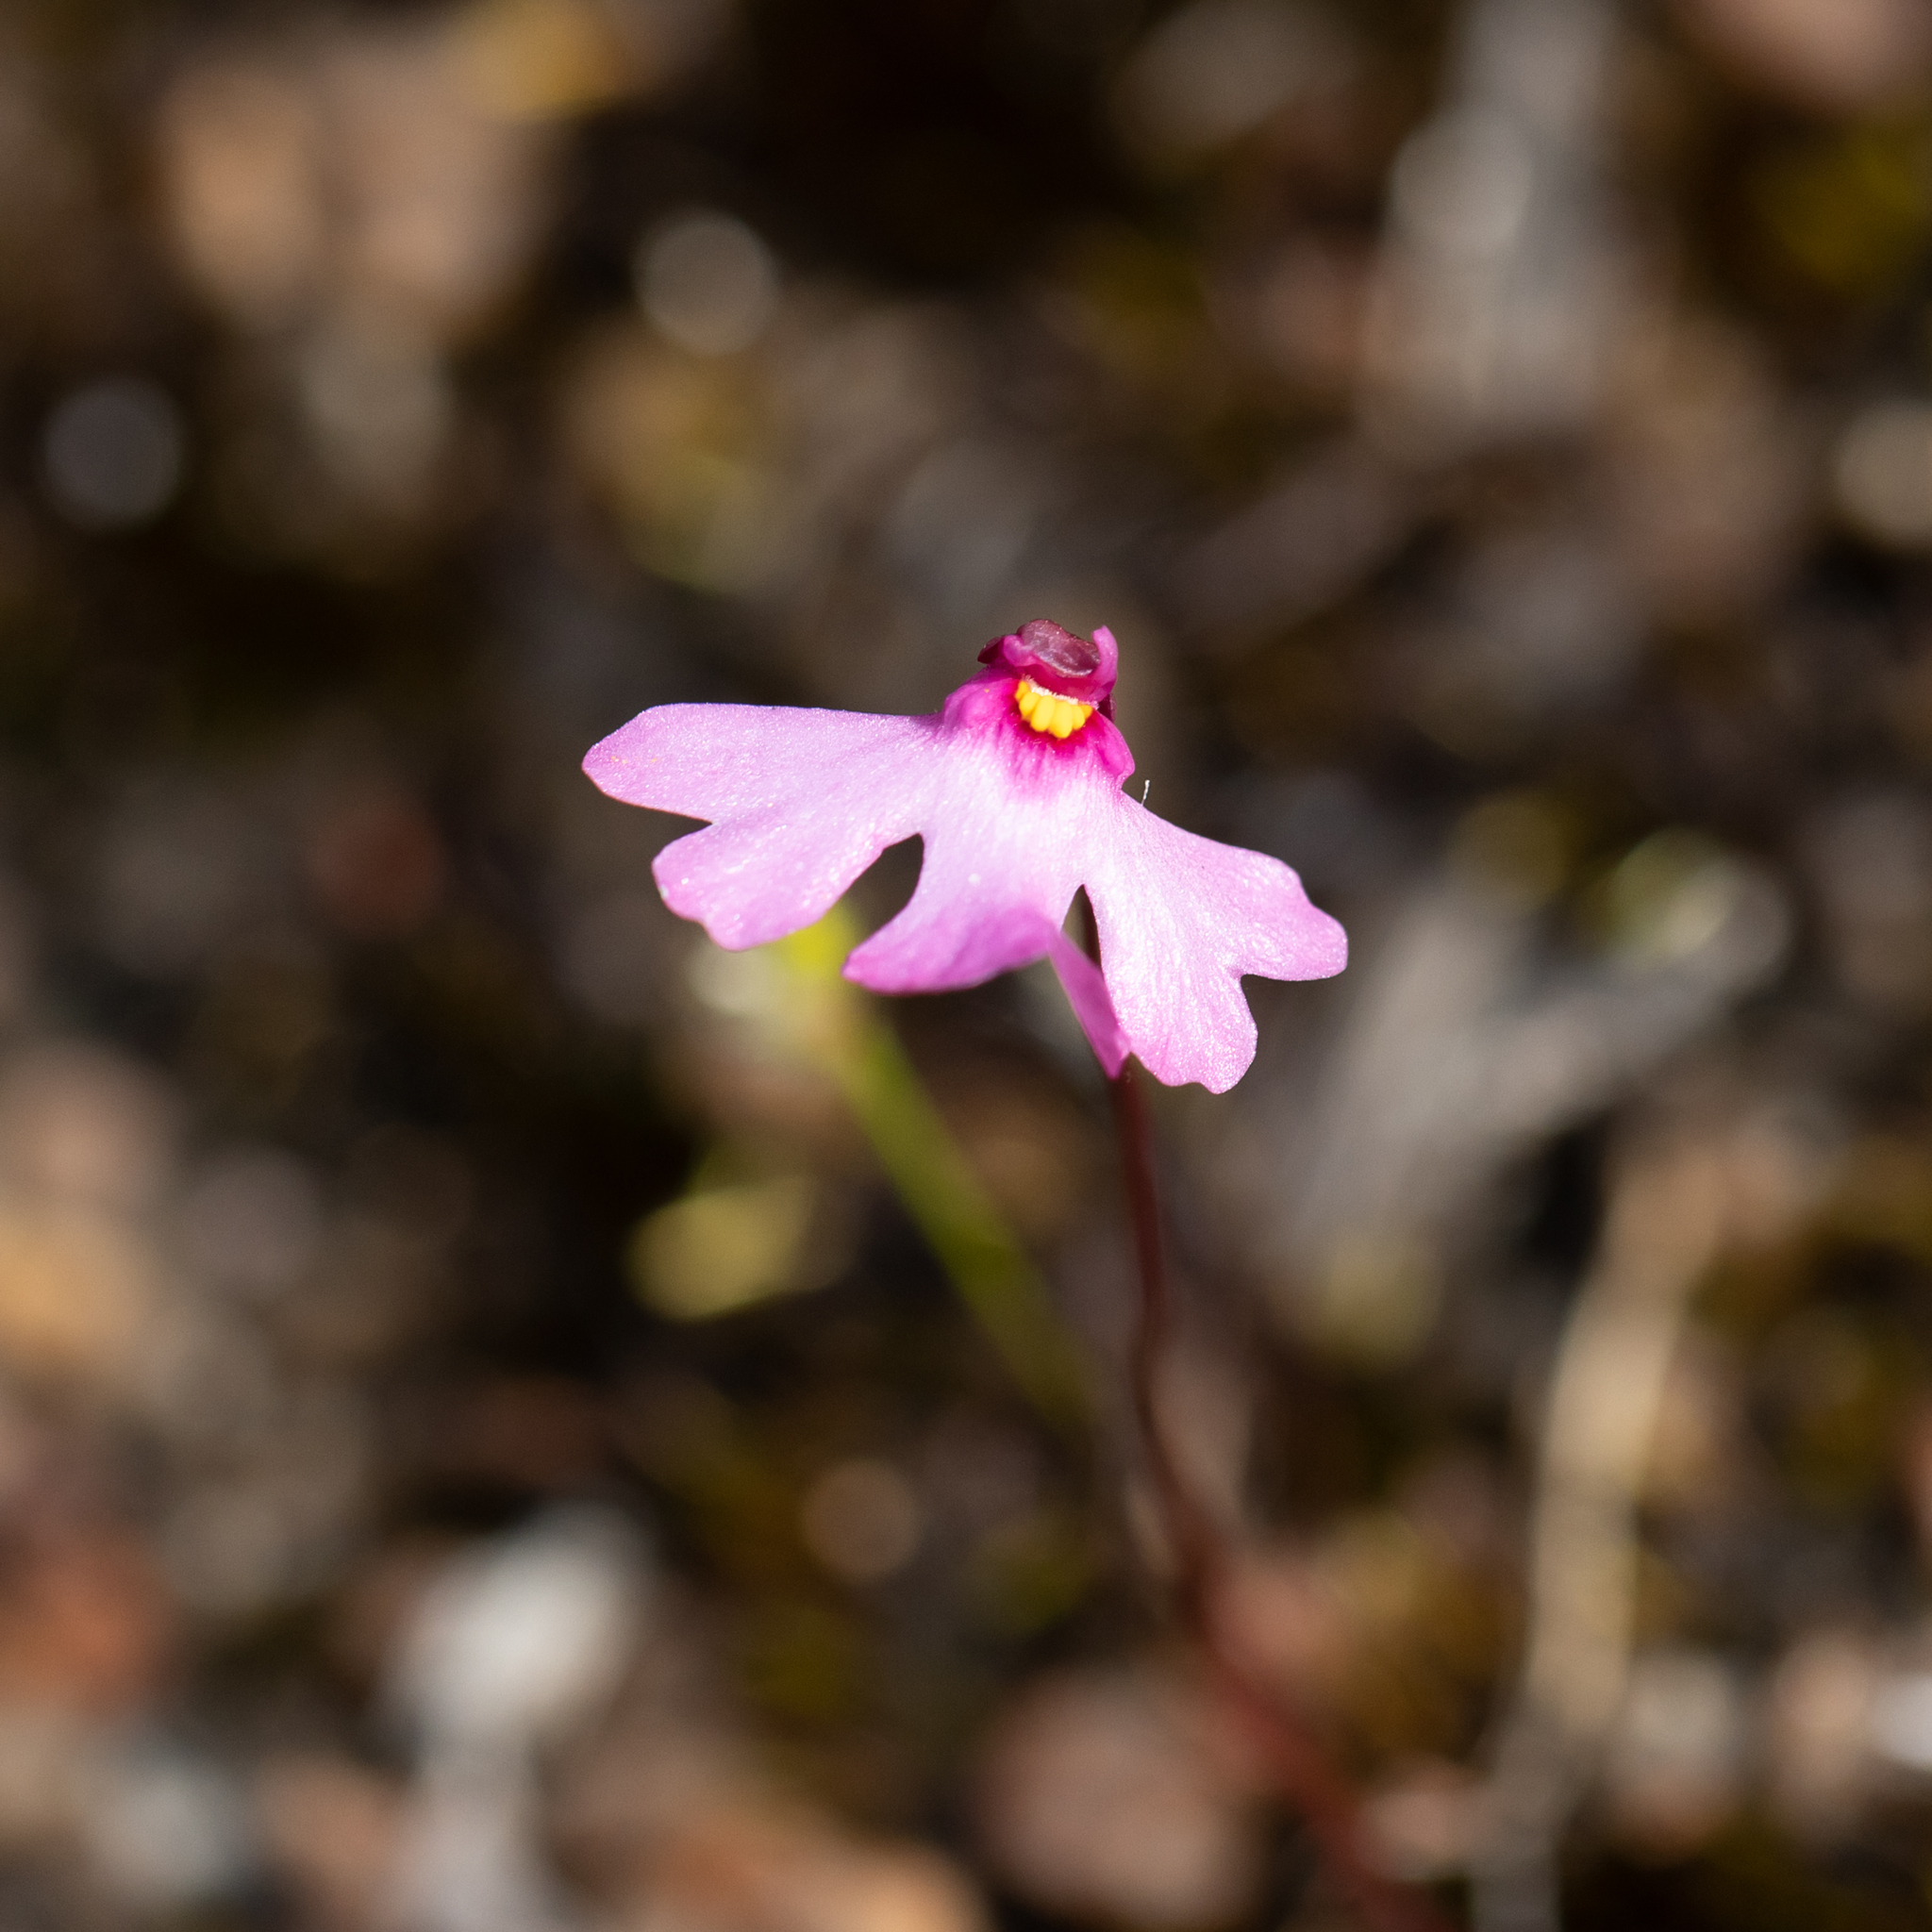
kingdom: Plantae
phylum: Tracheophyta
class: Magnoliopsida
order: Lamiales
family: Lentibulariaceae
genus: Utricularia
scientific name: Utricularia multifida
